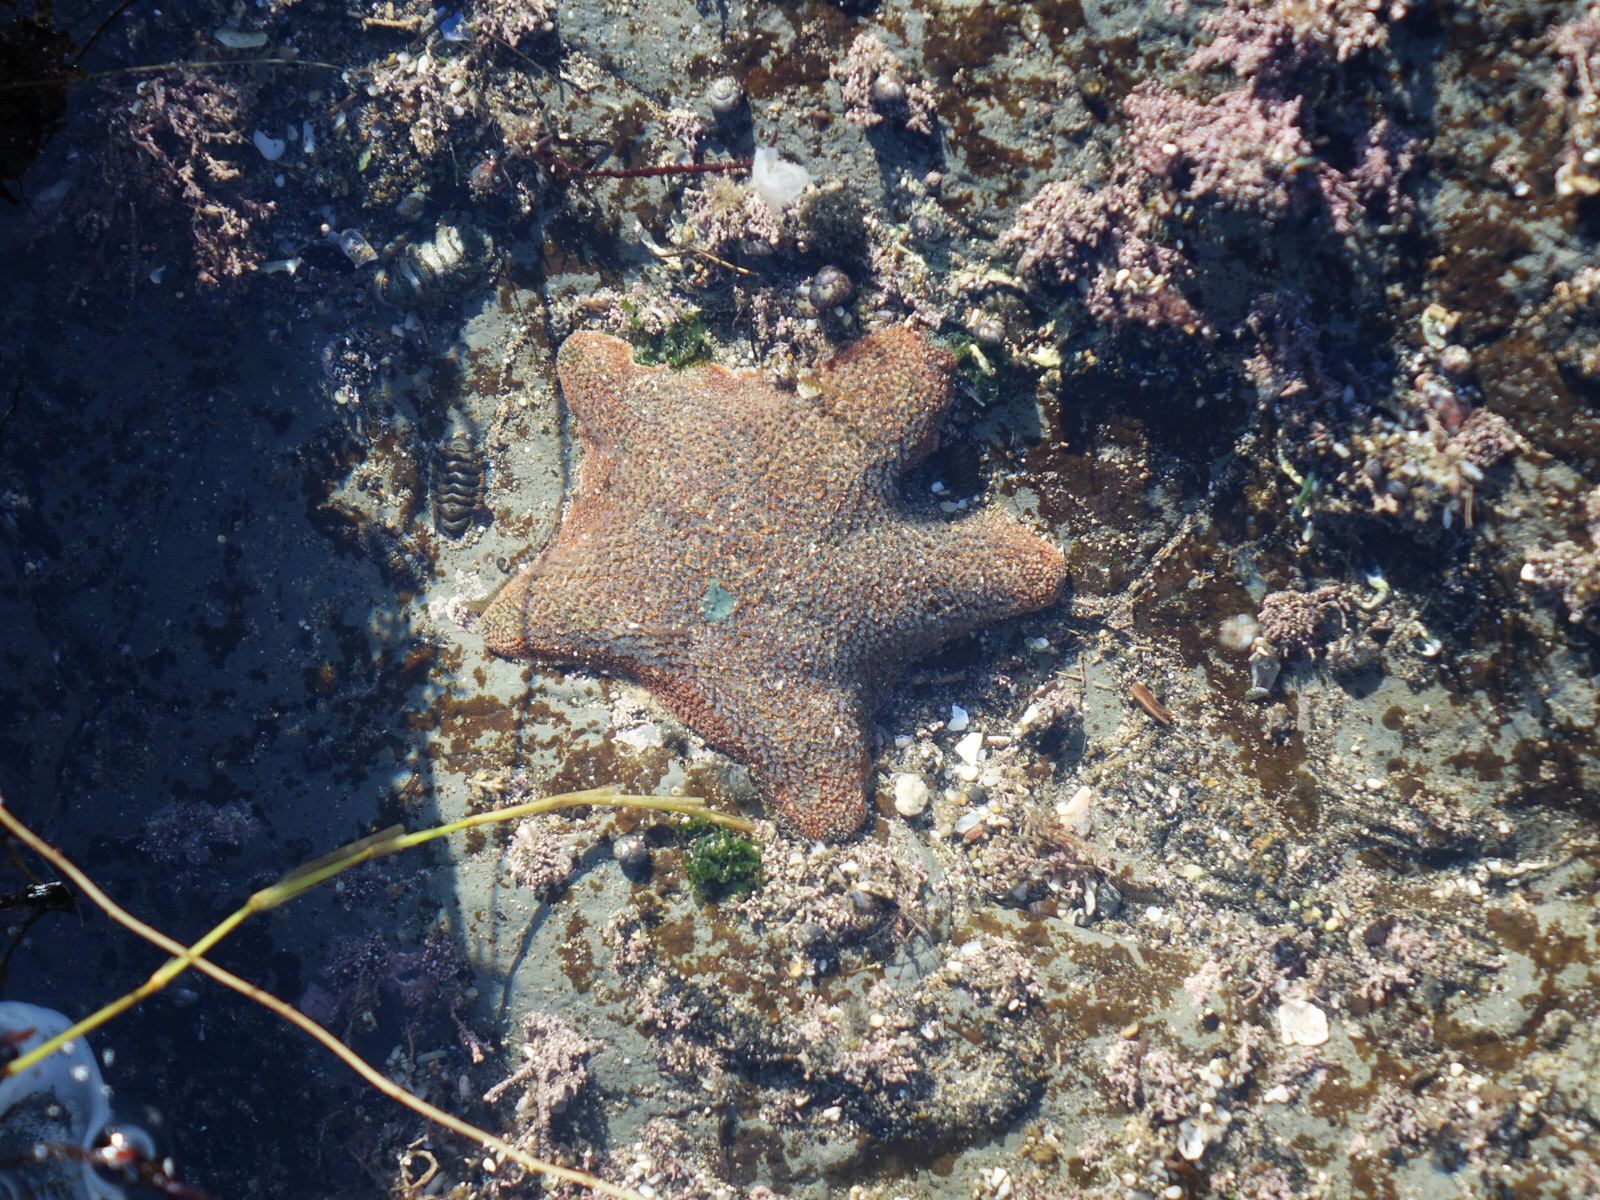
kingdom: Animalia
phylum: Echinodermata
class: Asteroidea
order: Valvatida
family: Asterinidae
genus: Patiriella
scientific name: Patiriella regularis
